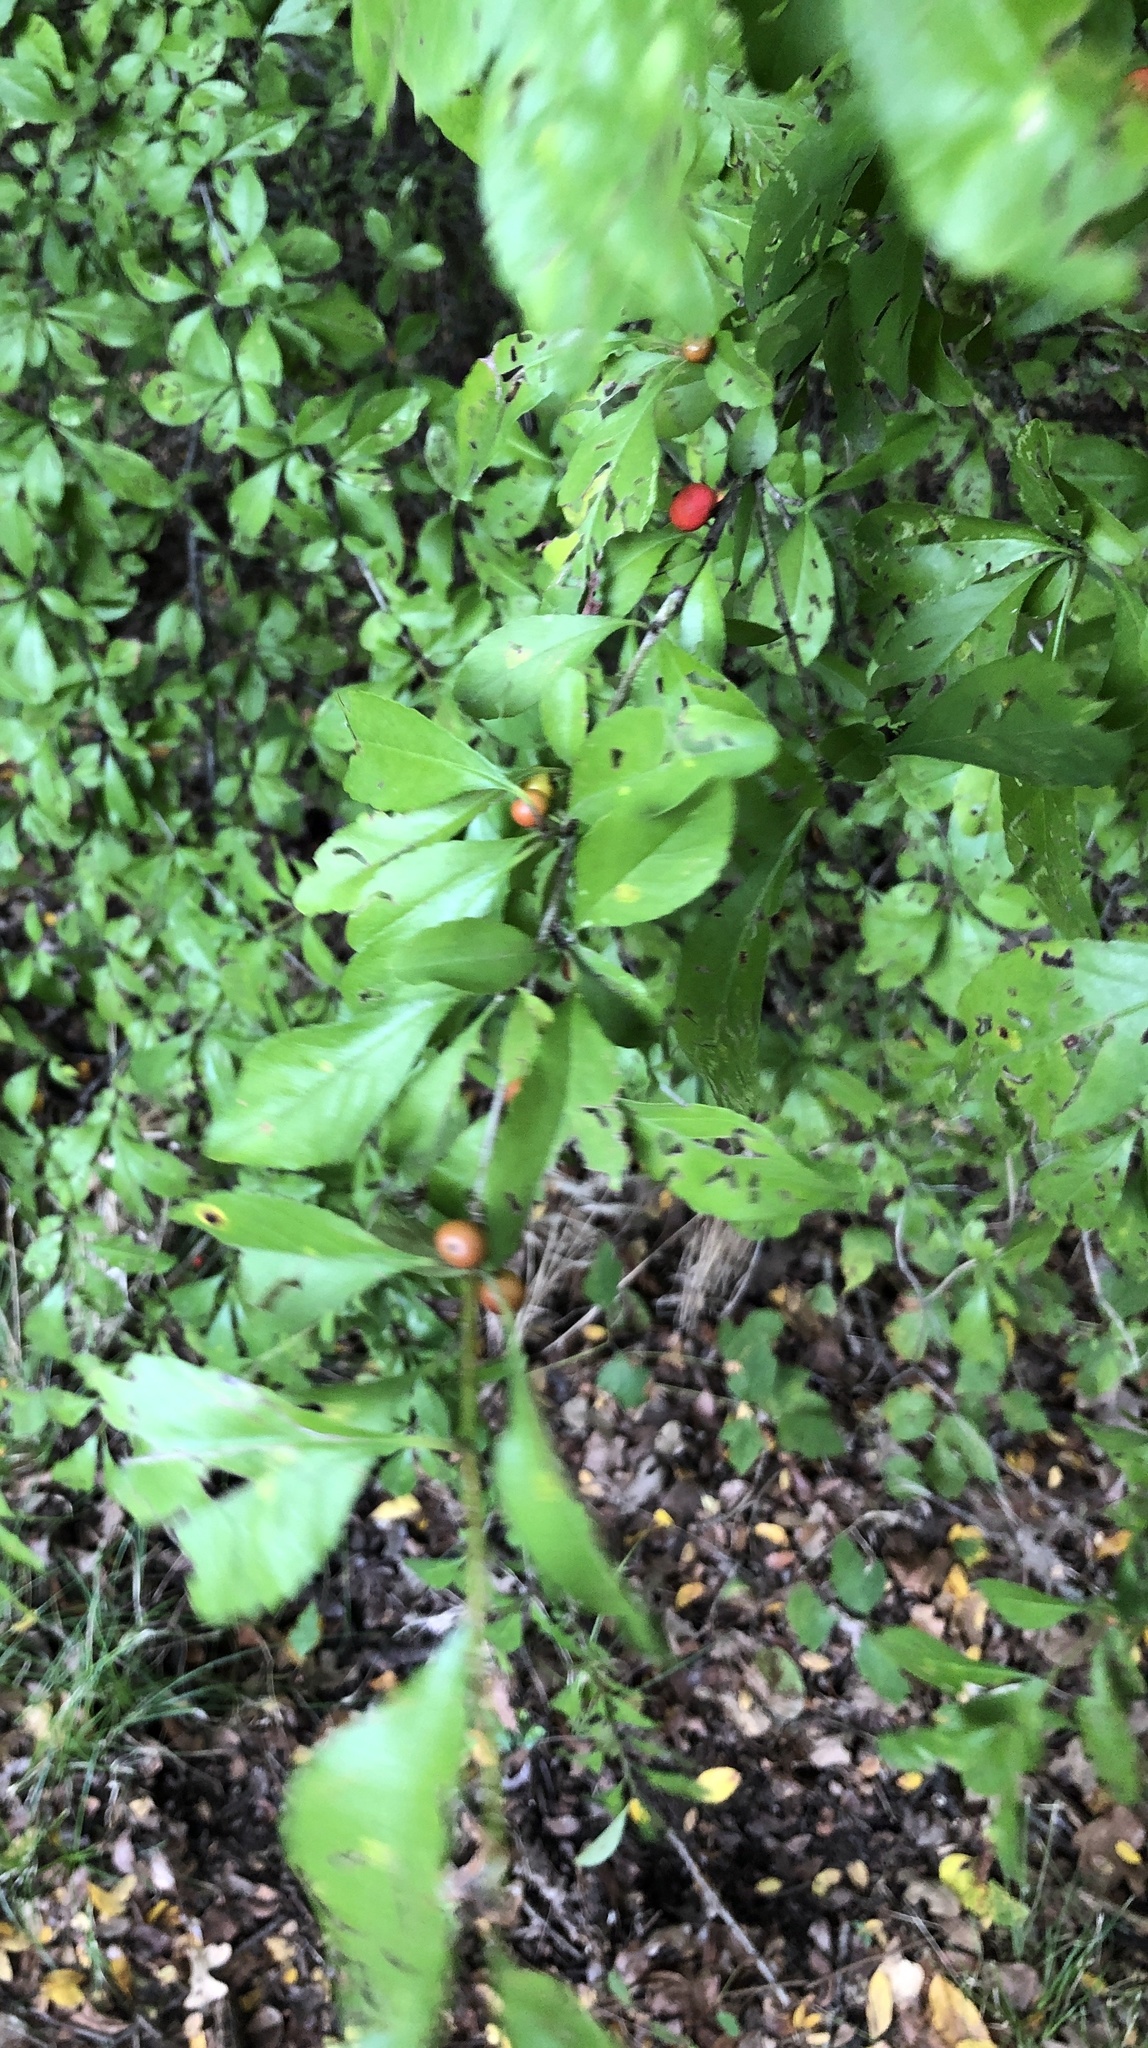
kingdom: Plantae
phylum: Tracheophyta
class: Magnoliopsida
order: Aquifoliales
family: Aquifoliaceae
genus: Ilex
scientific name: Ilex decidua
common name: Possum-haw
